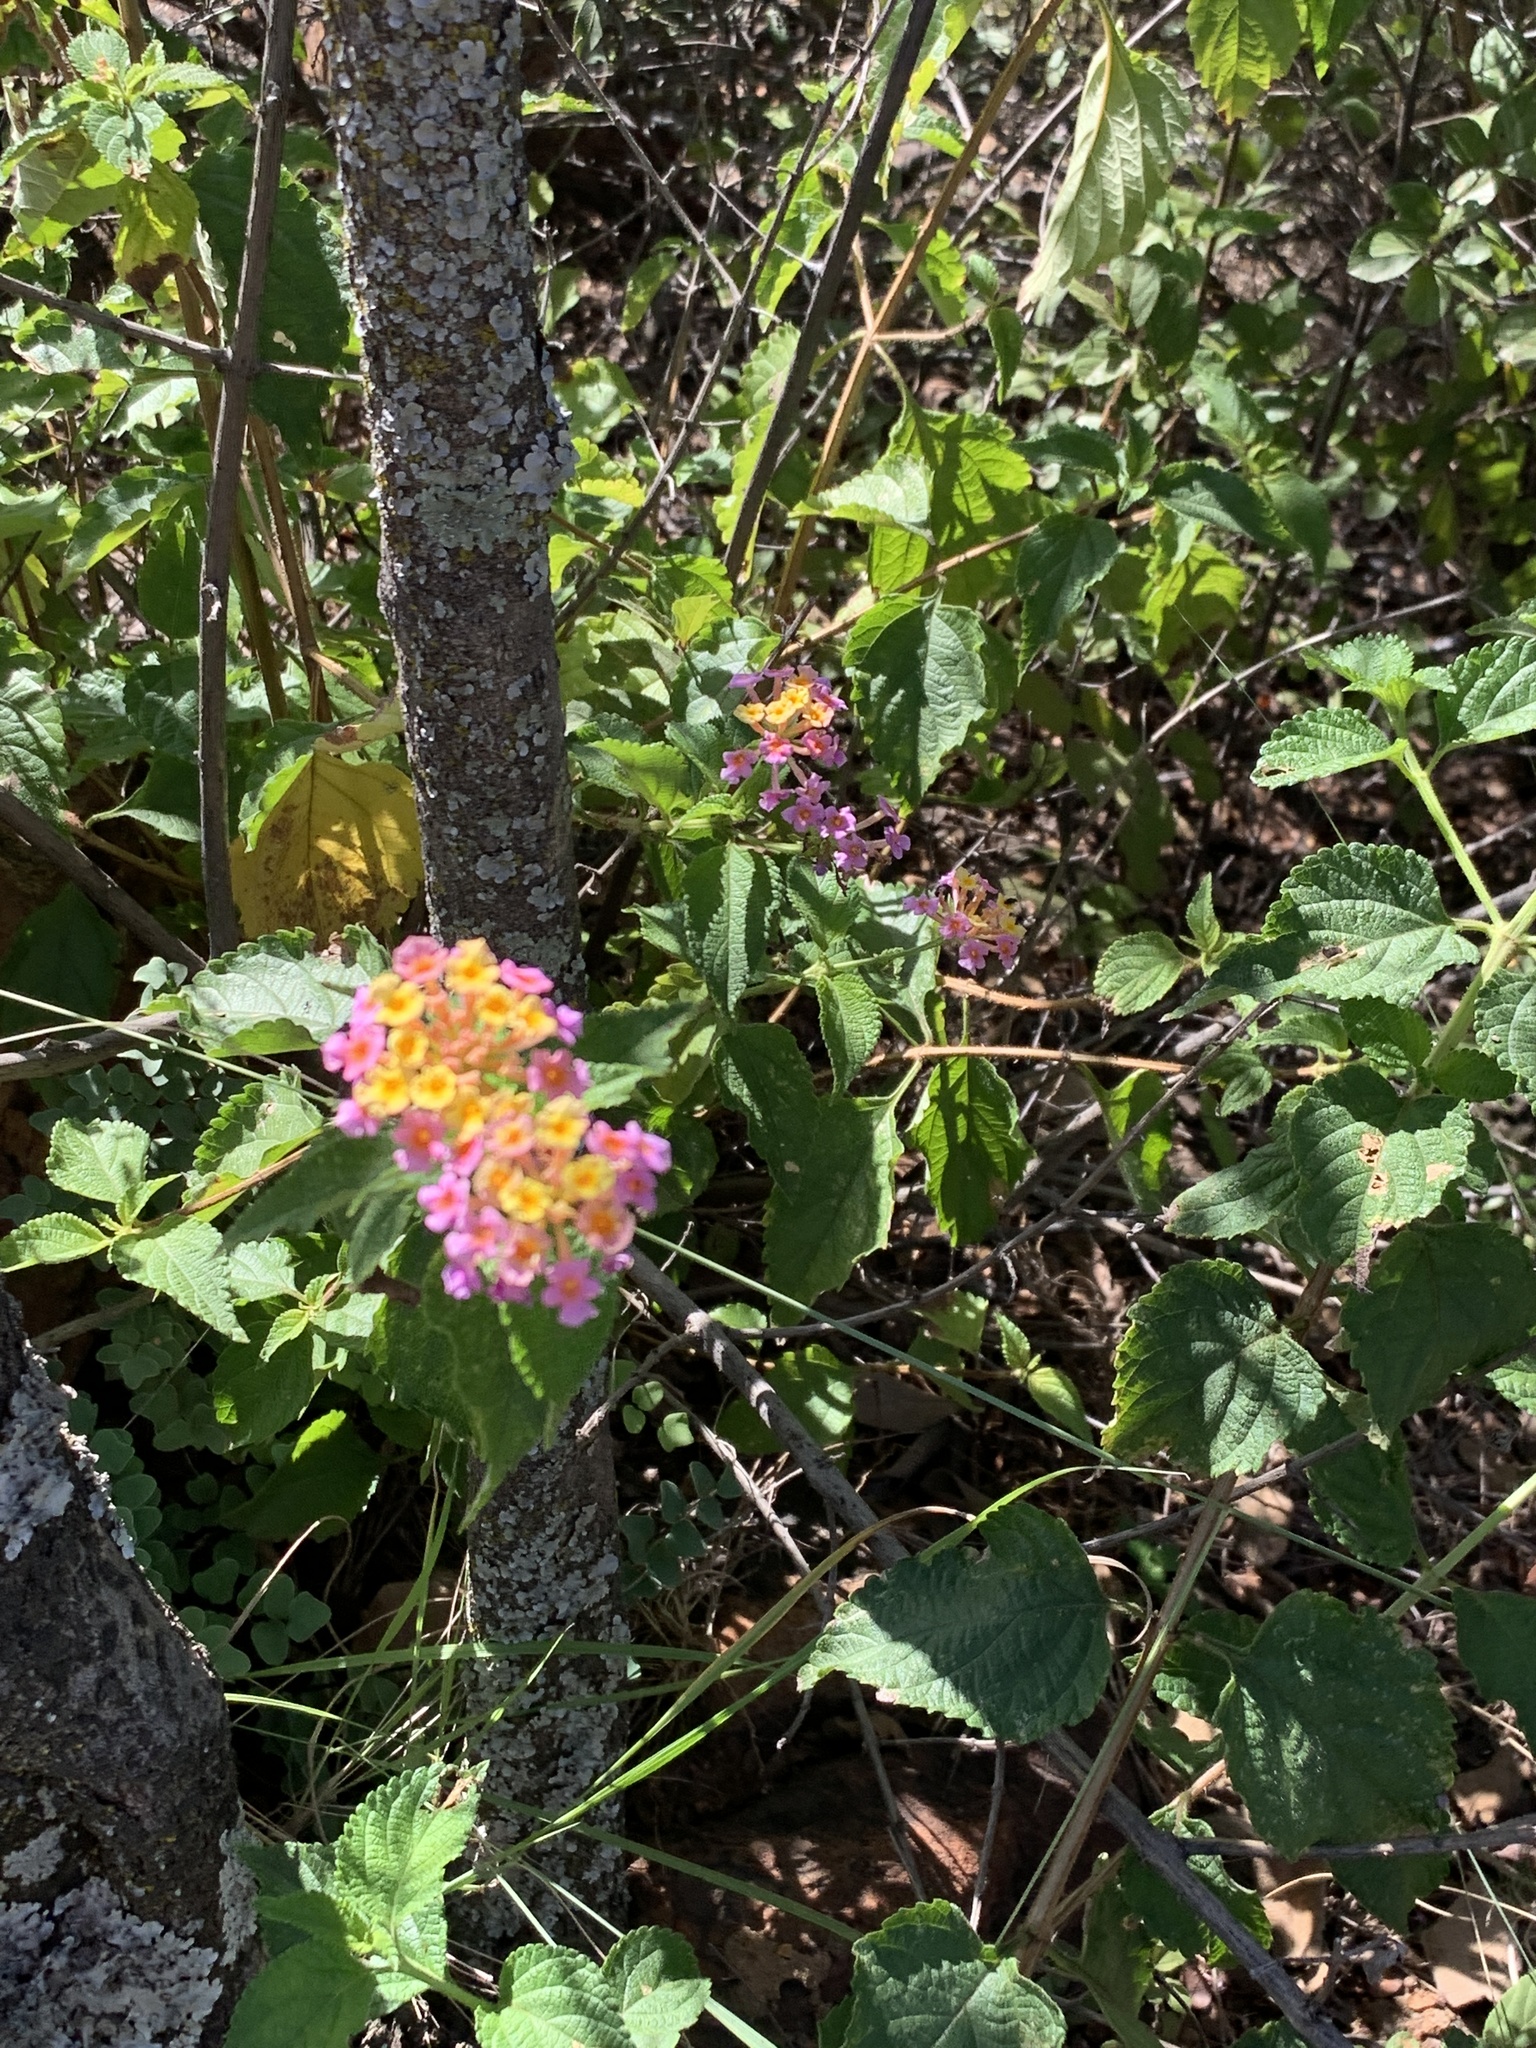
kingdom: Plantae
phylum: Tracheophyta
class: Magnoliopsida
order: Lamiales
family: Verbenaceae
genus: Lantana
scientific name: Lantana camara
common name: Lantana
